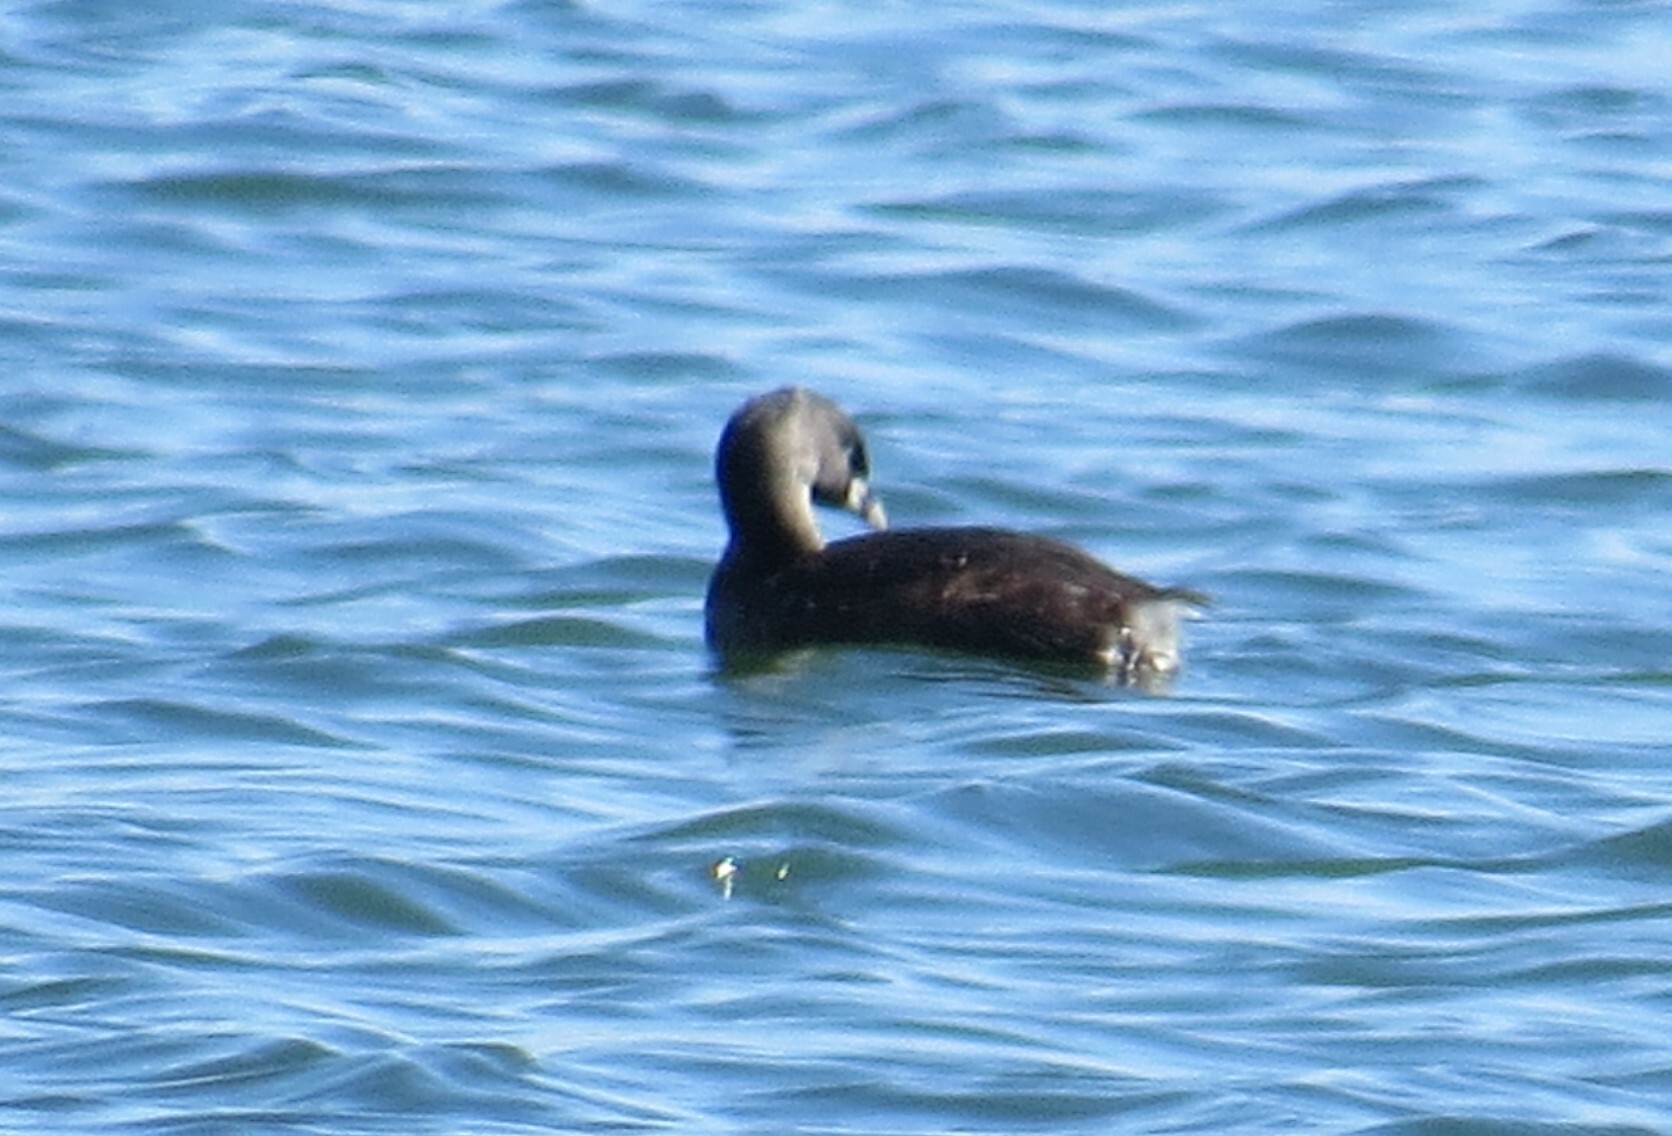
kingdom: Animalia
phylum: Chordata
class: Aves
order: Podicipediformes
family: Podicipedidae
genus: Podilymbus
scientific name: Podilymbus podiceps
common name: Pied-billed grebe
